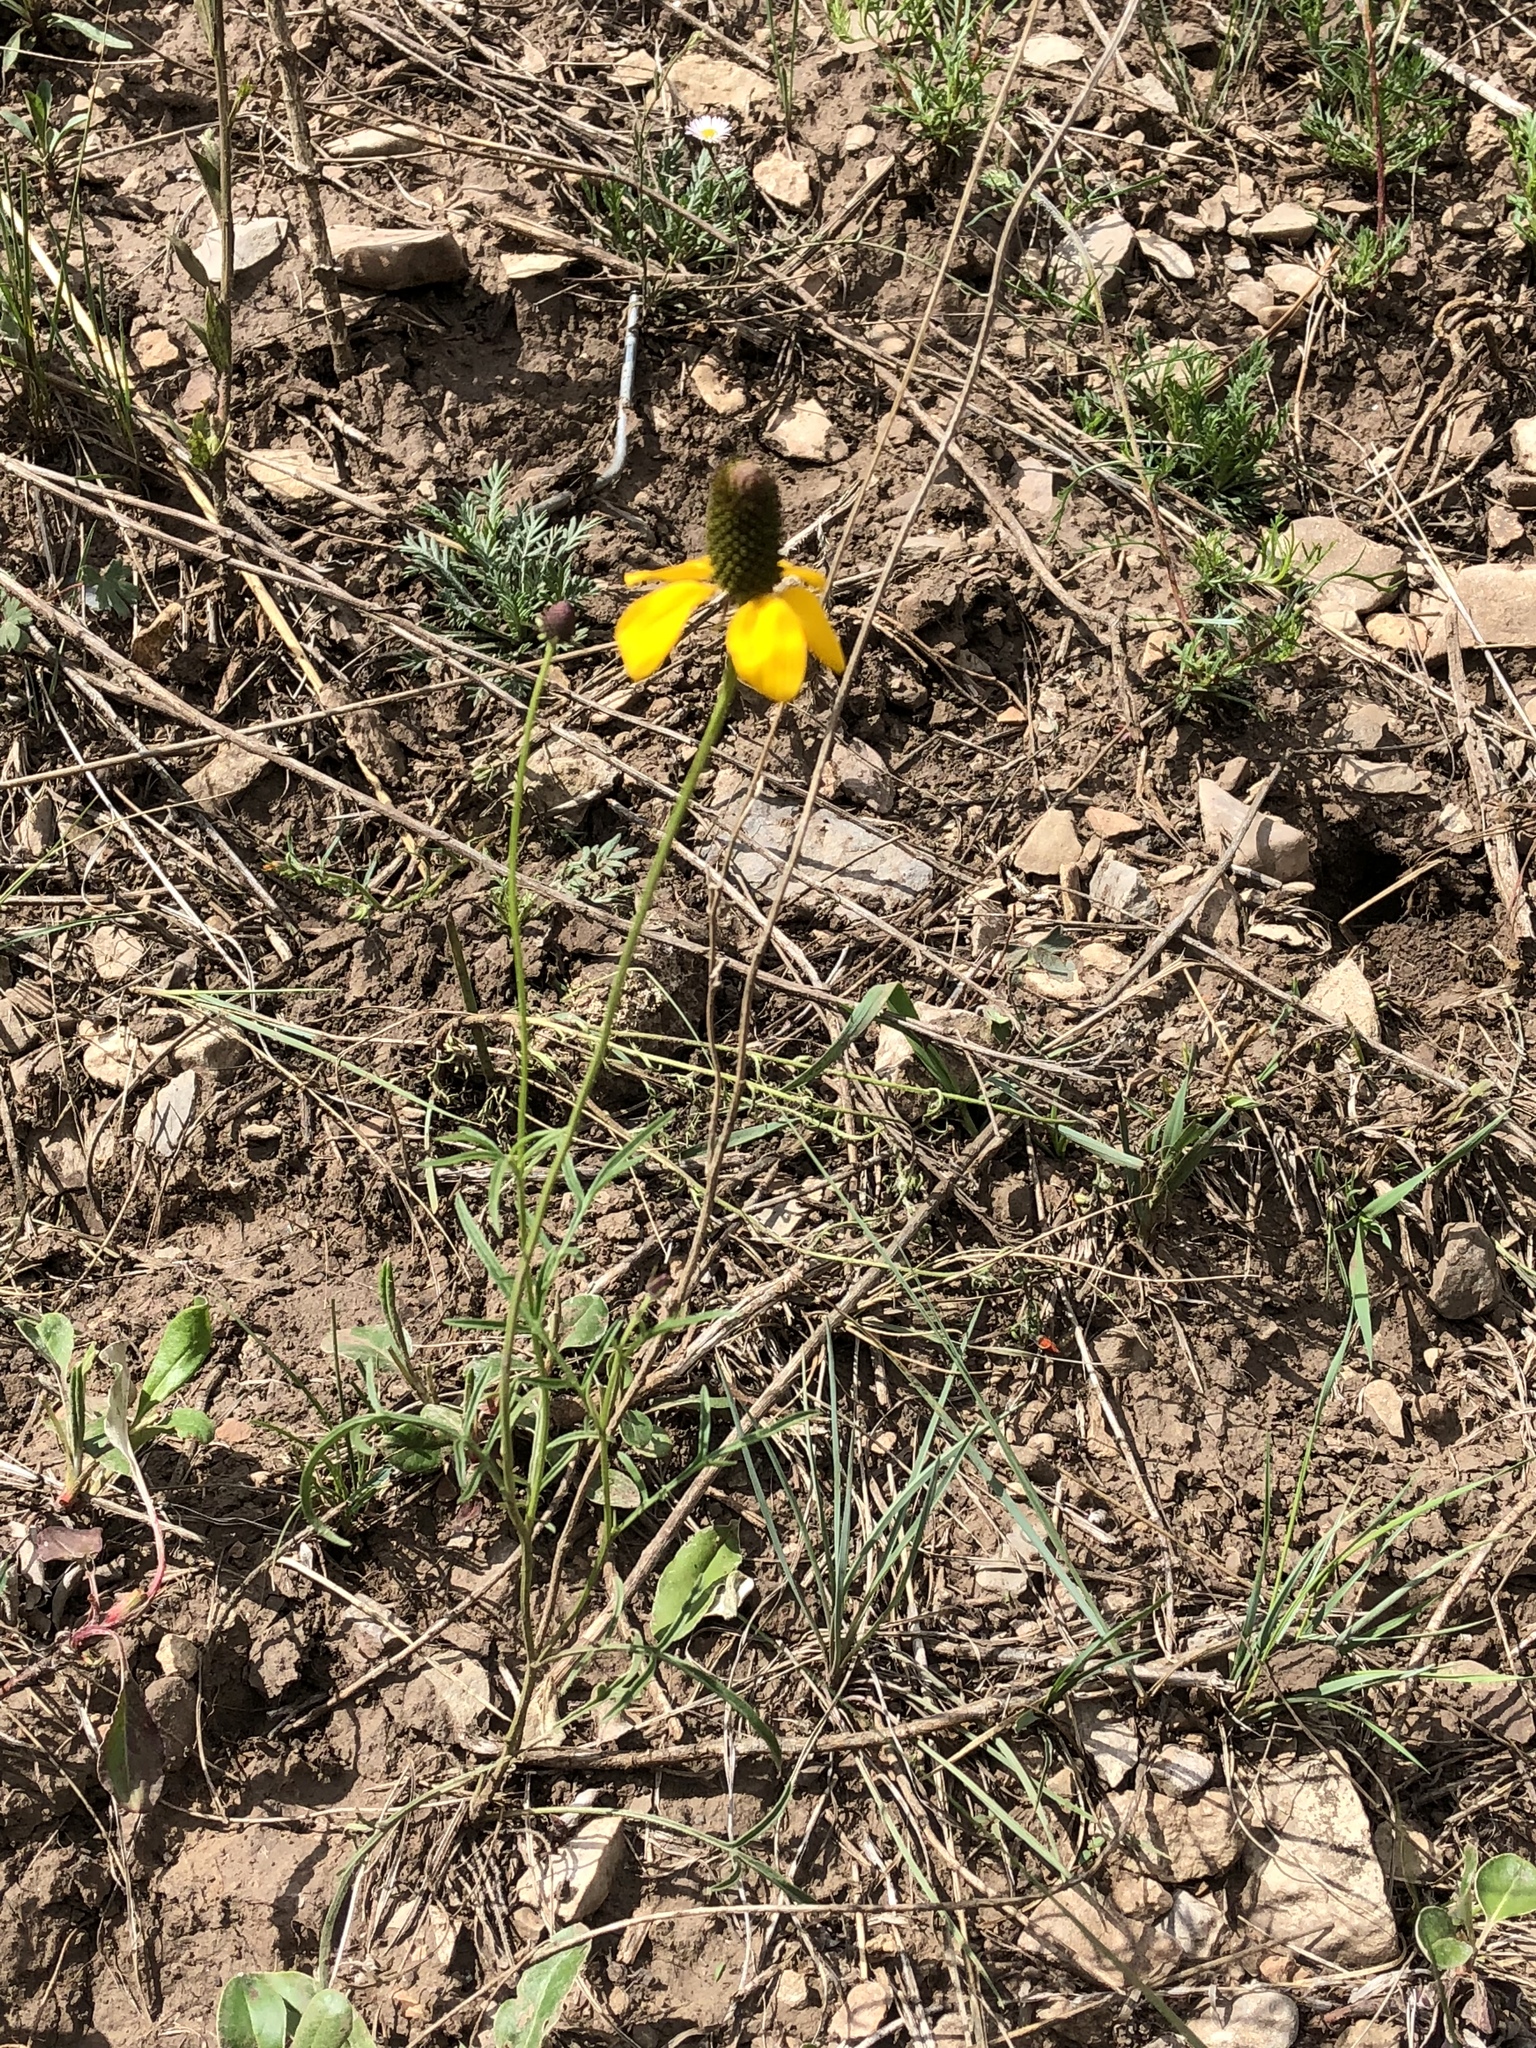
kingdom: Plantae
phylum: Tracheophyta
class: Magnoliopsida
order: Asterales
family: Asteraceae
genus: Ratibida
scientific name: Ratibida columnifera
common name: Prairie coneflower
